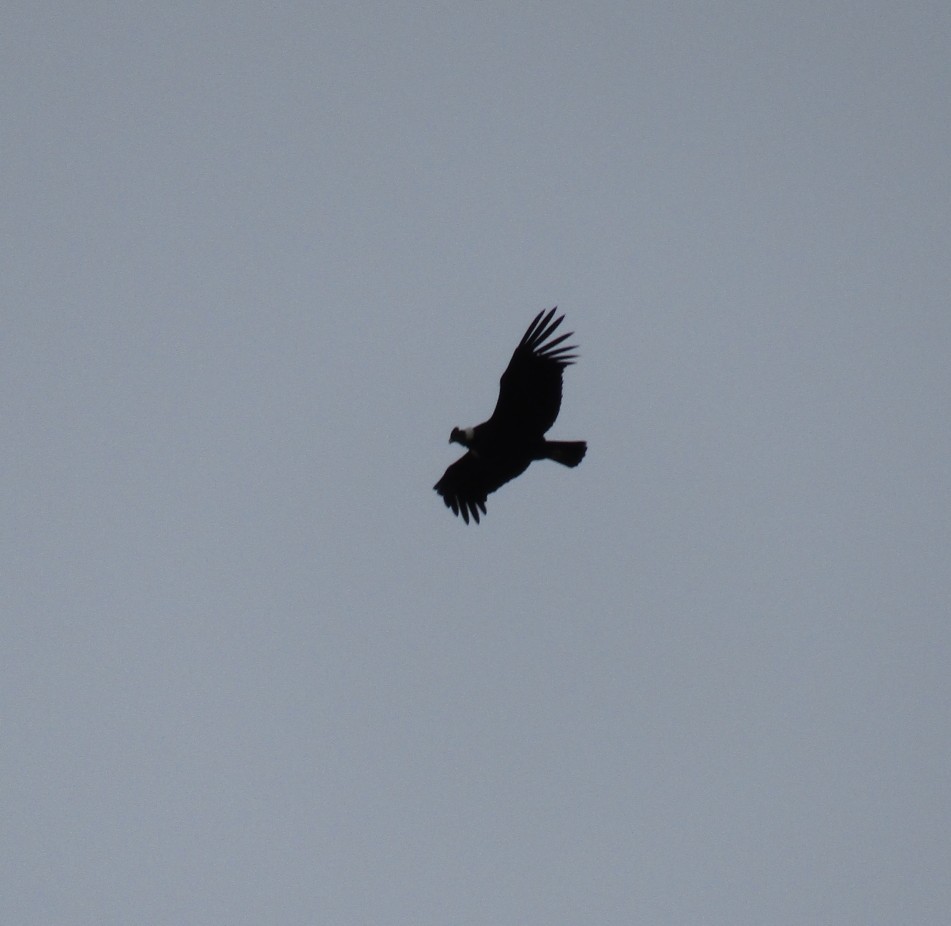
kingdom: Animalia
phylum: Chordata
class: Aves
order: Accipitriformes
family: Cathartidae
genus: Vultur
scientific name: Vultur gryphus
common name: Andean condor
